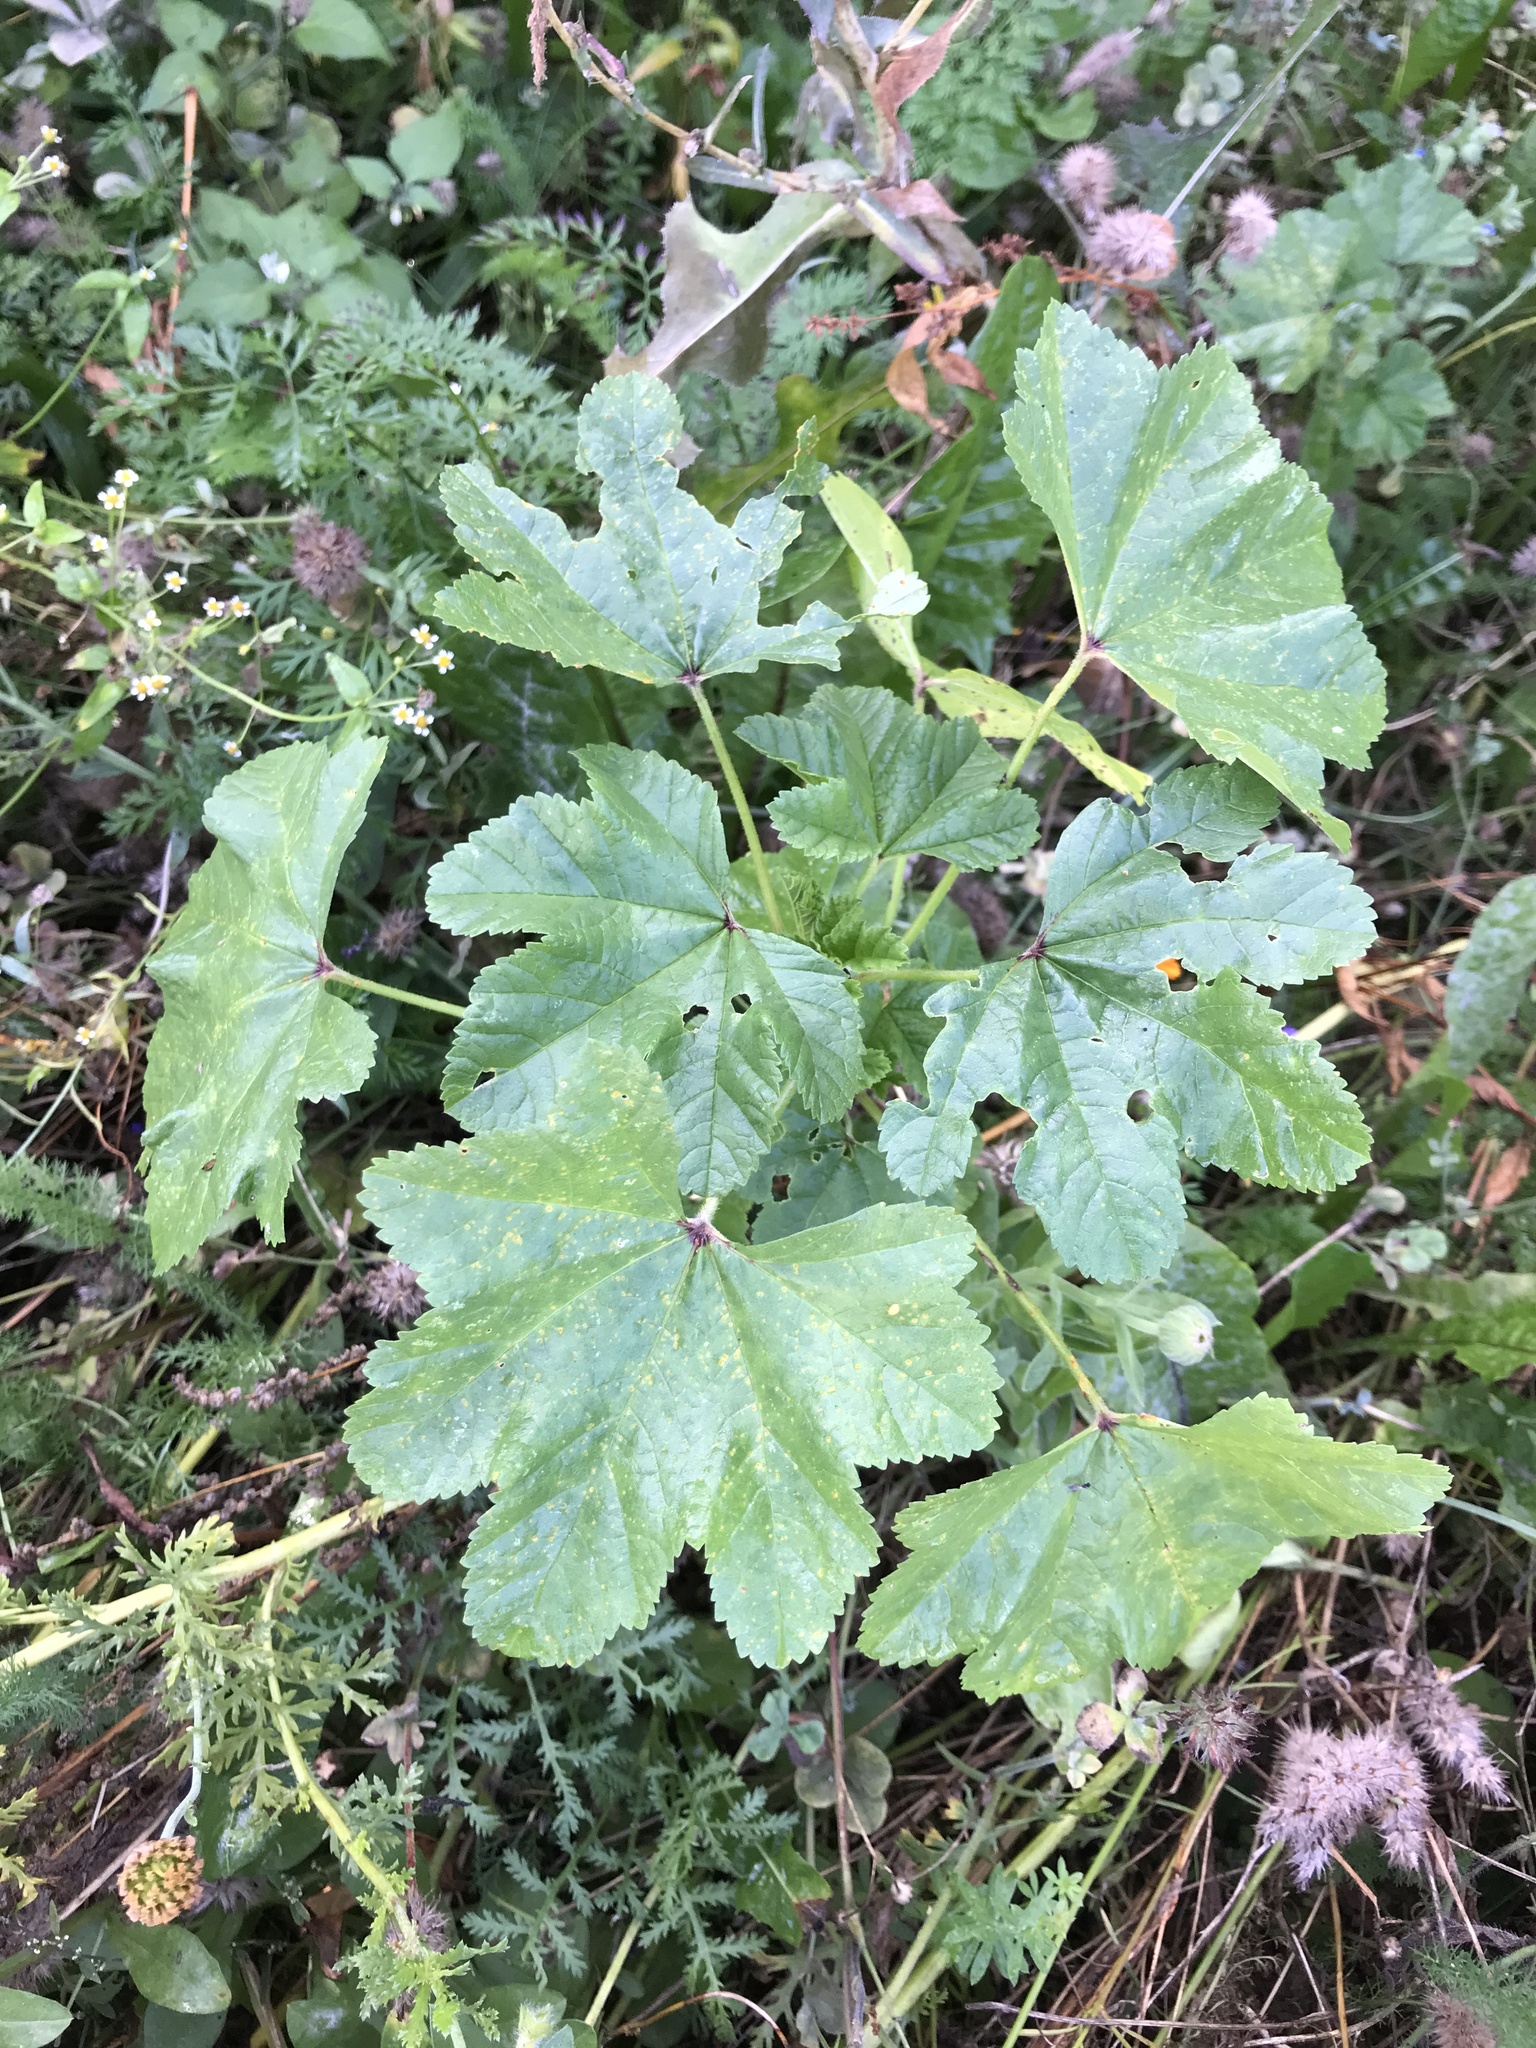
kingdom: Plantae
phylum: Tracheophyta
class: Magnoliopsida
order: Malvales
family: Malvaceae
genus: Malva
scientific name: Malva sylvestris
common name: Common mallow
